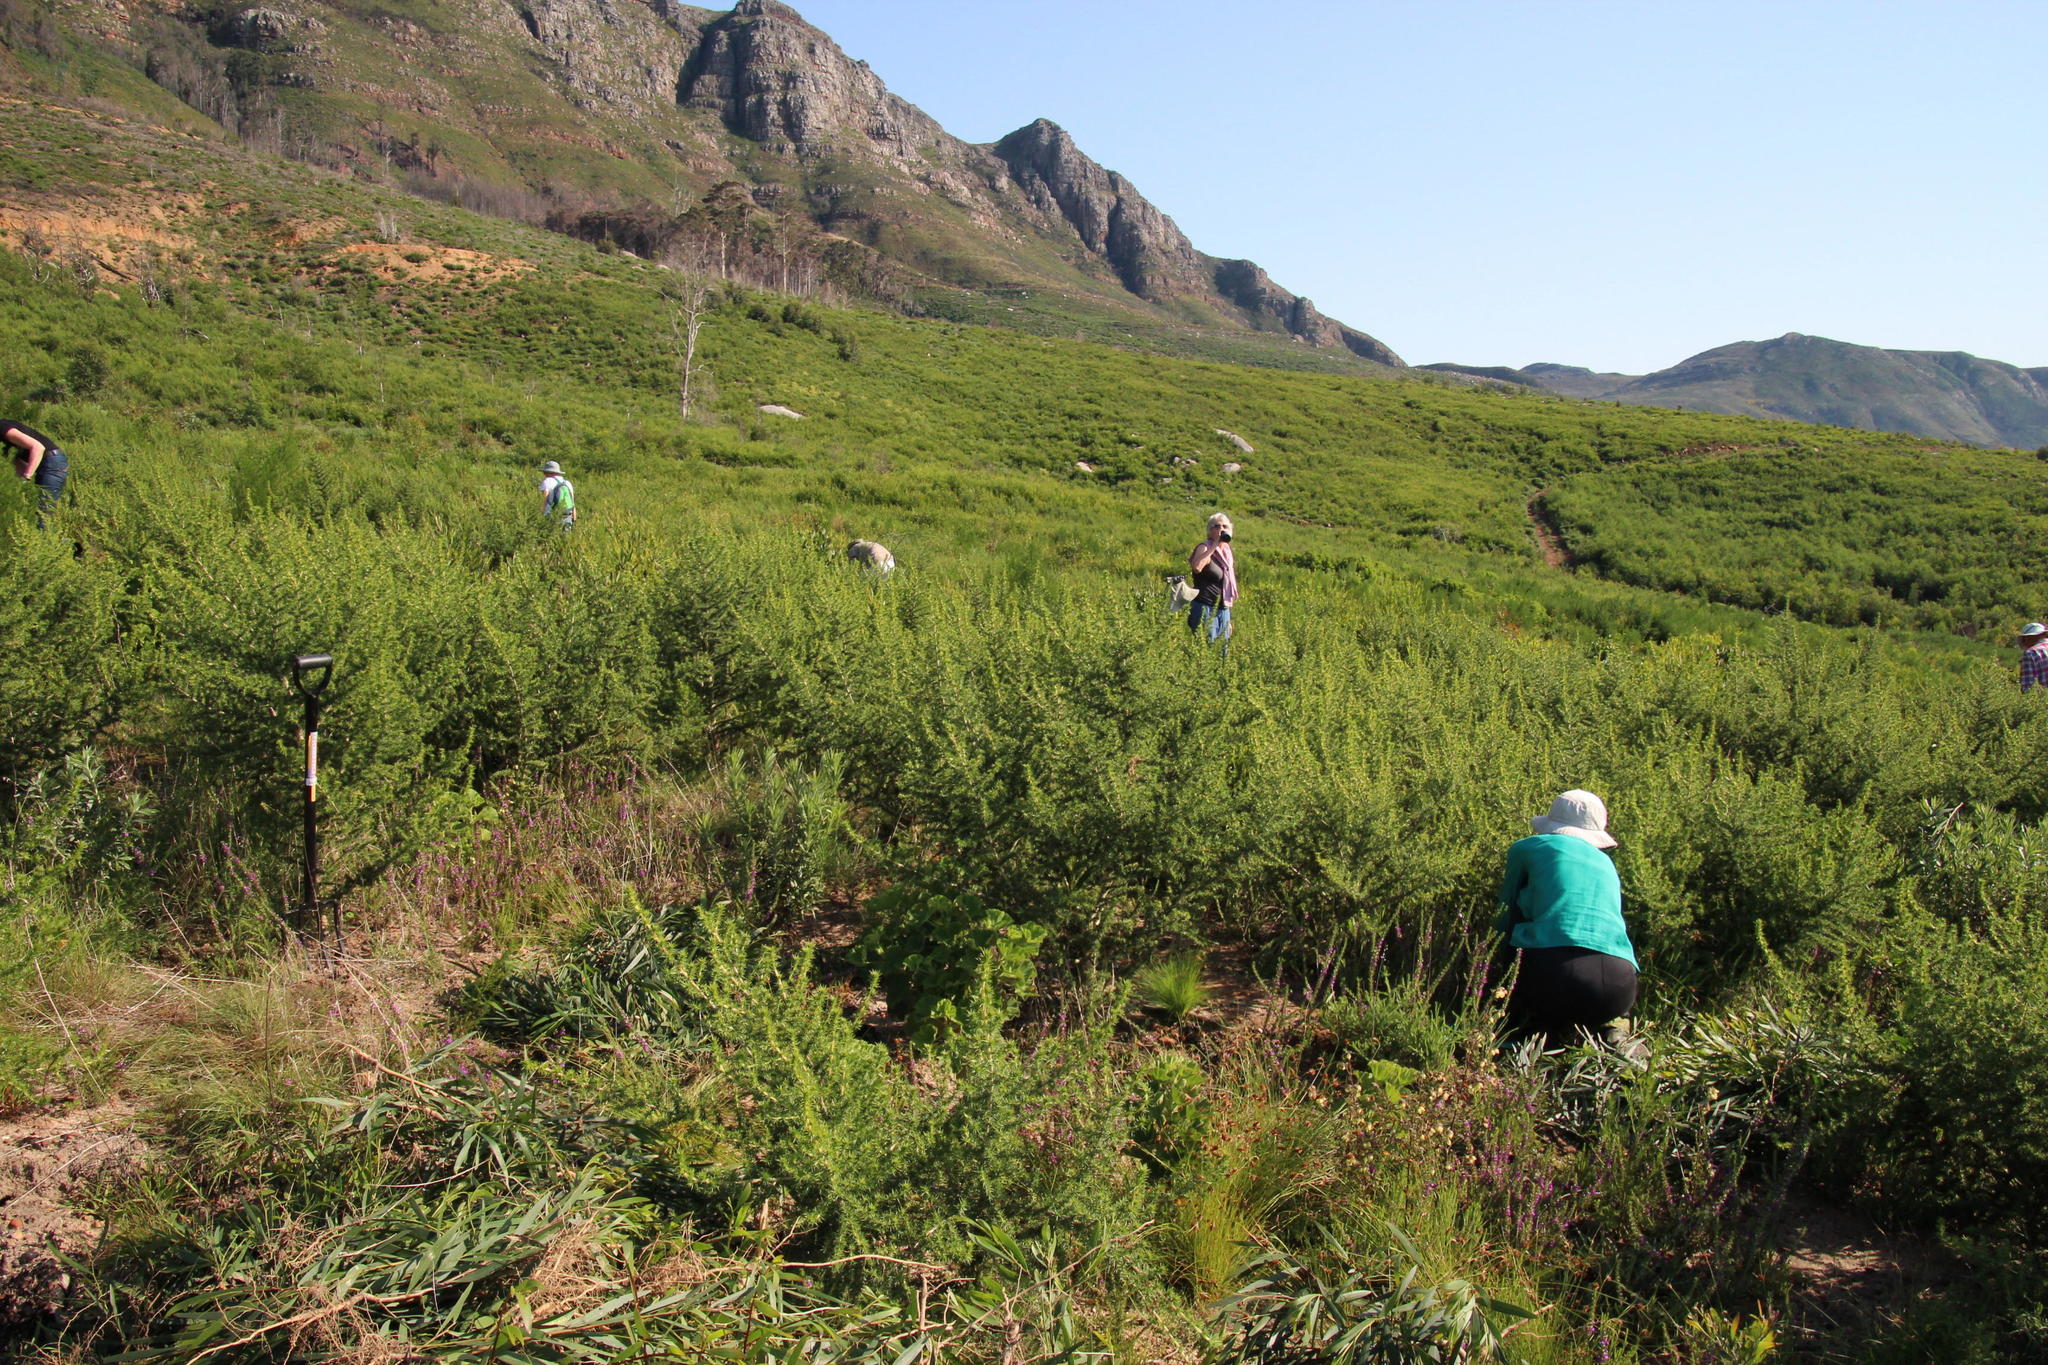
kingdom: Plantae
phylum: Tracheophyta
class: Magnoliopsida
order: Fabales
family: Fabaceae
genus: Aspalathus
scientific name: Aspalathus astroites
